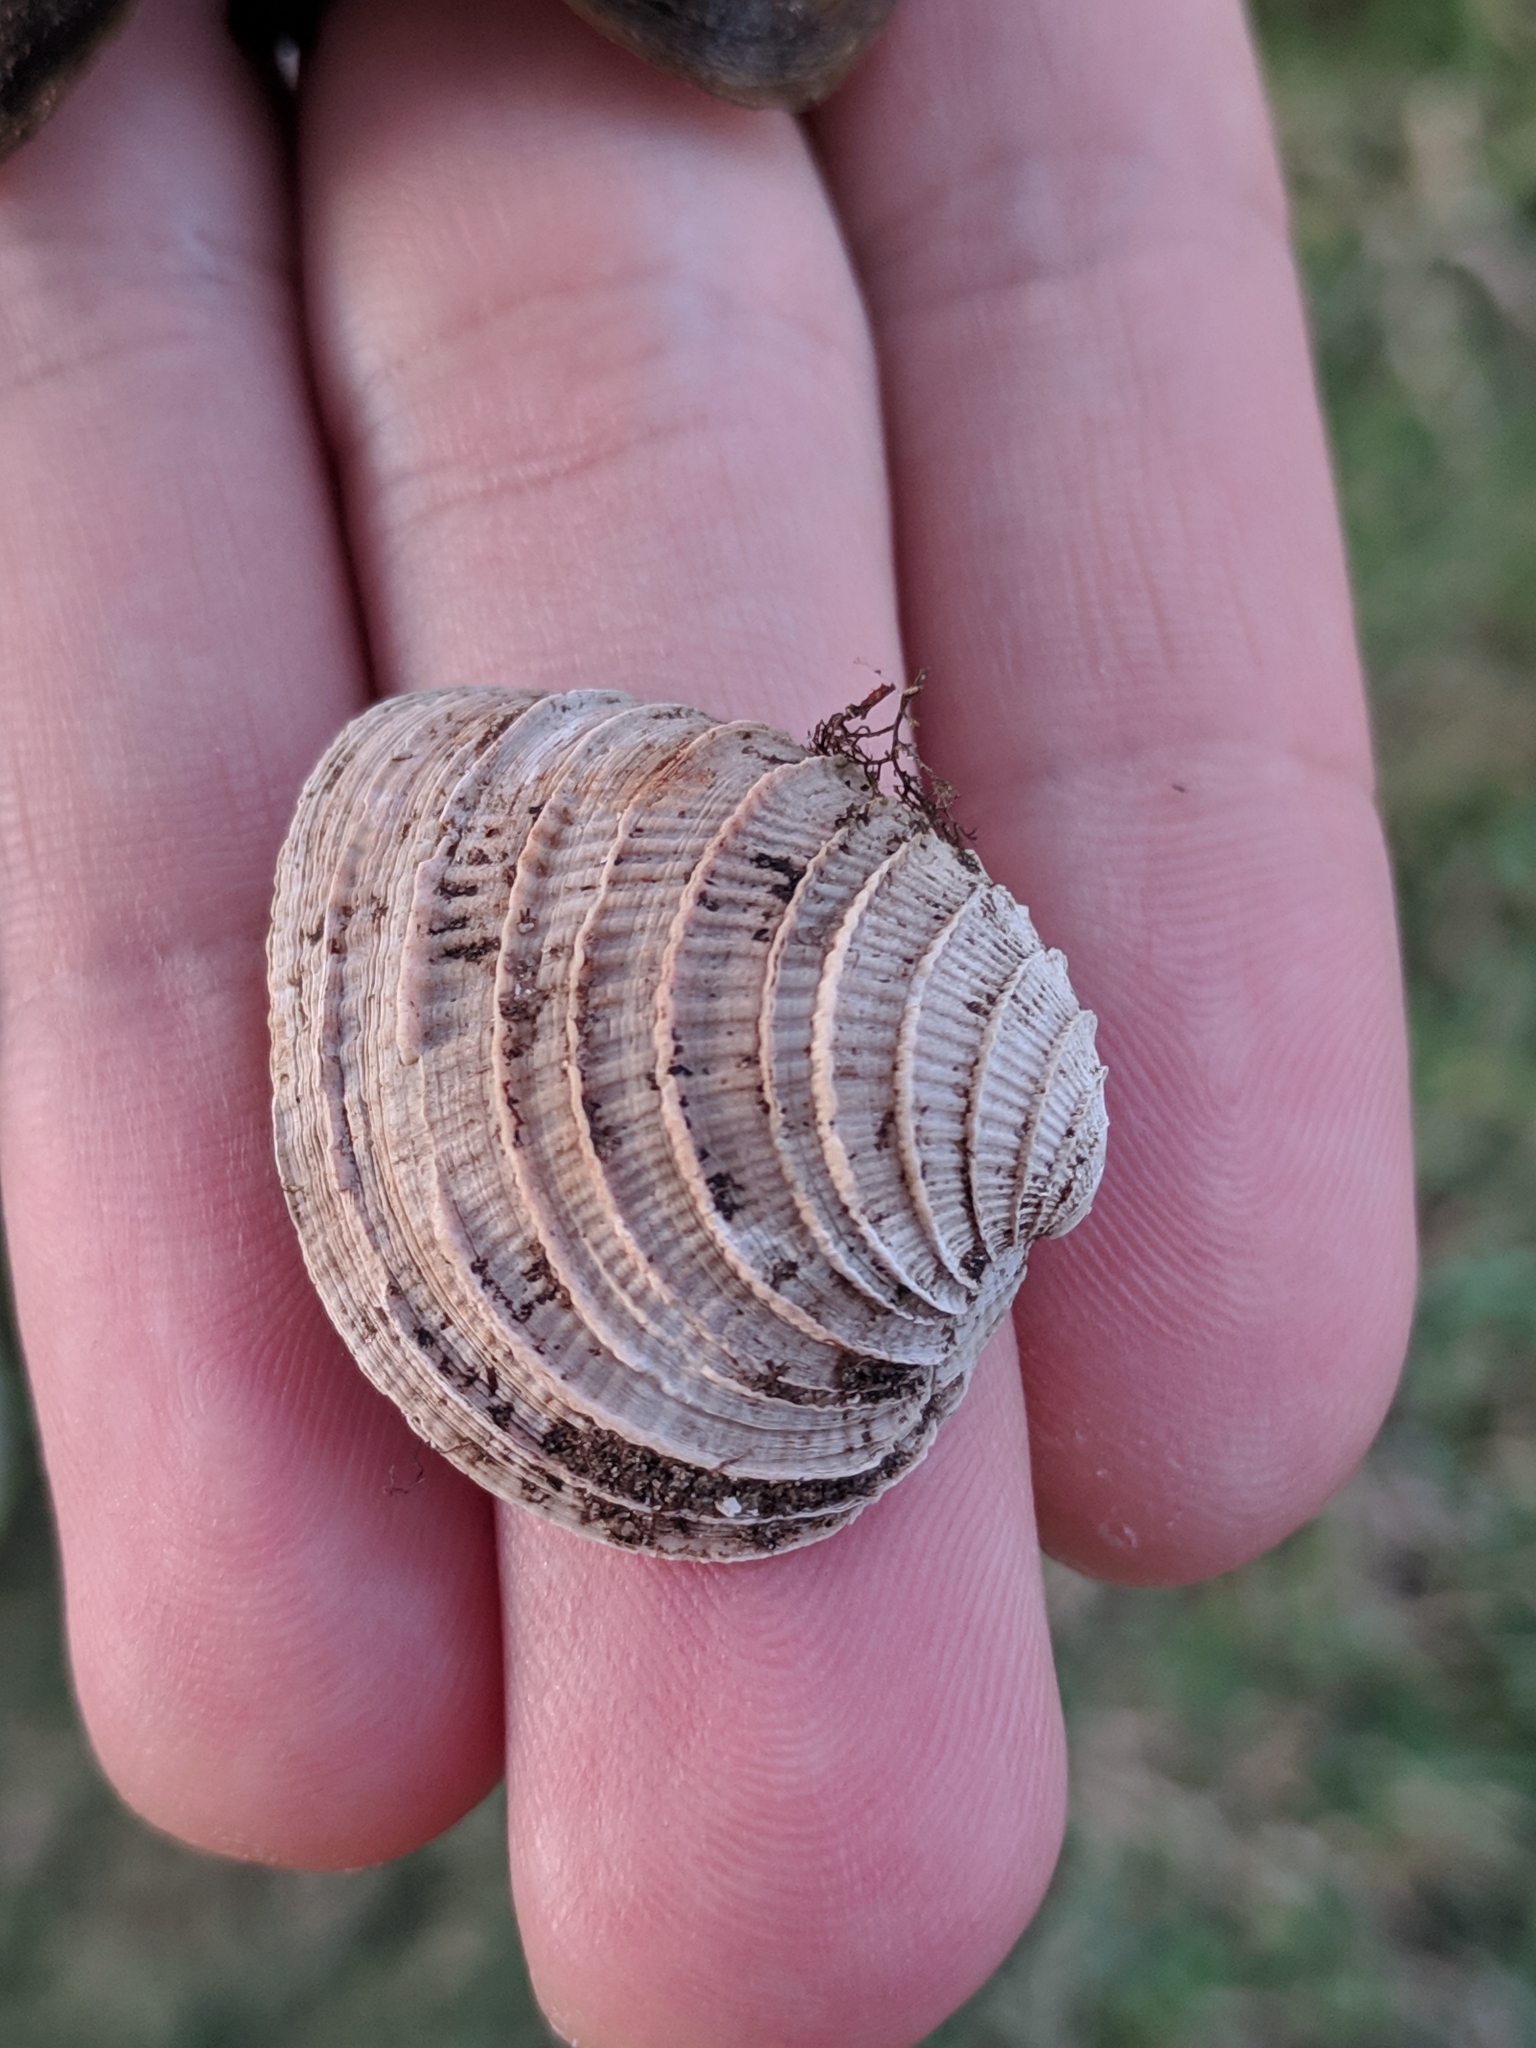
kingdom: Animalia
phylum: Mollusca
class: Bivalvia
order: Venerida
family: Veneridae
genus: Chione
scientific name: Chione elevata
